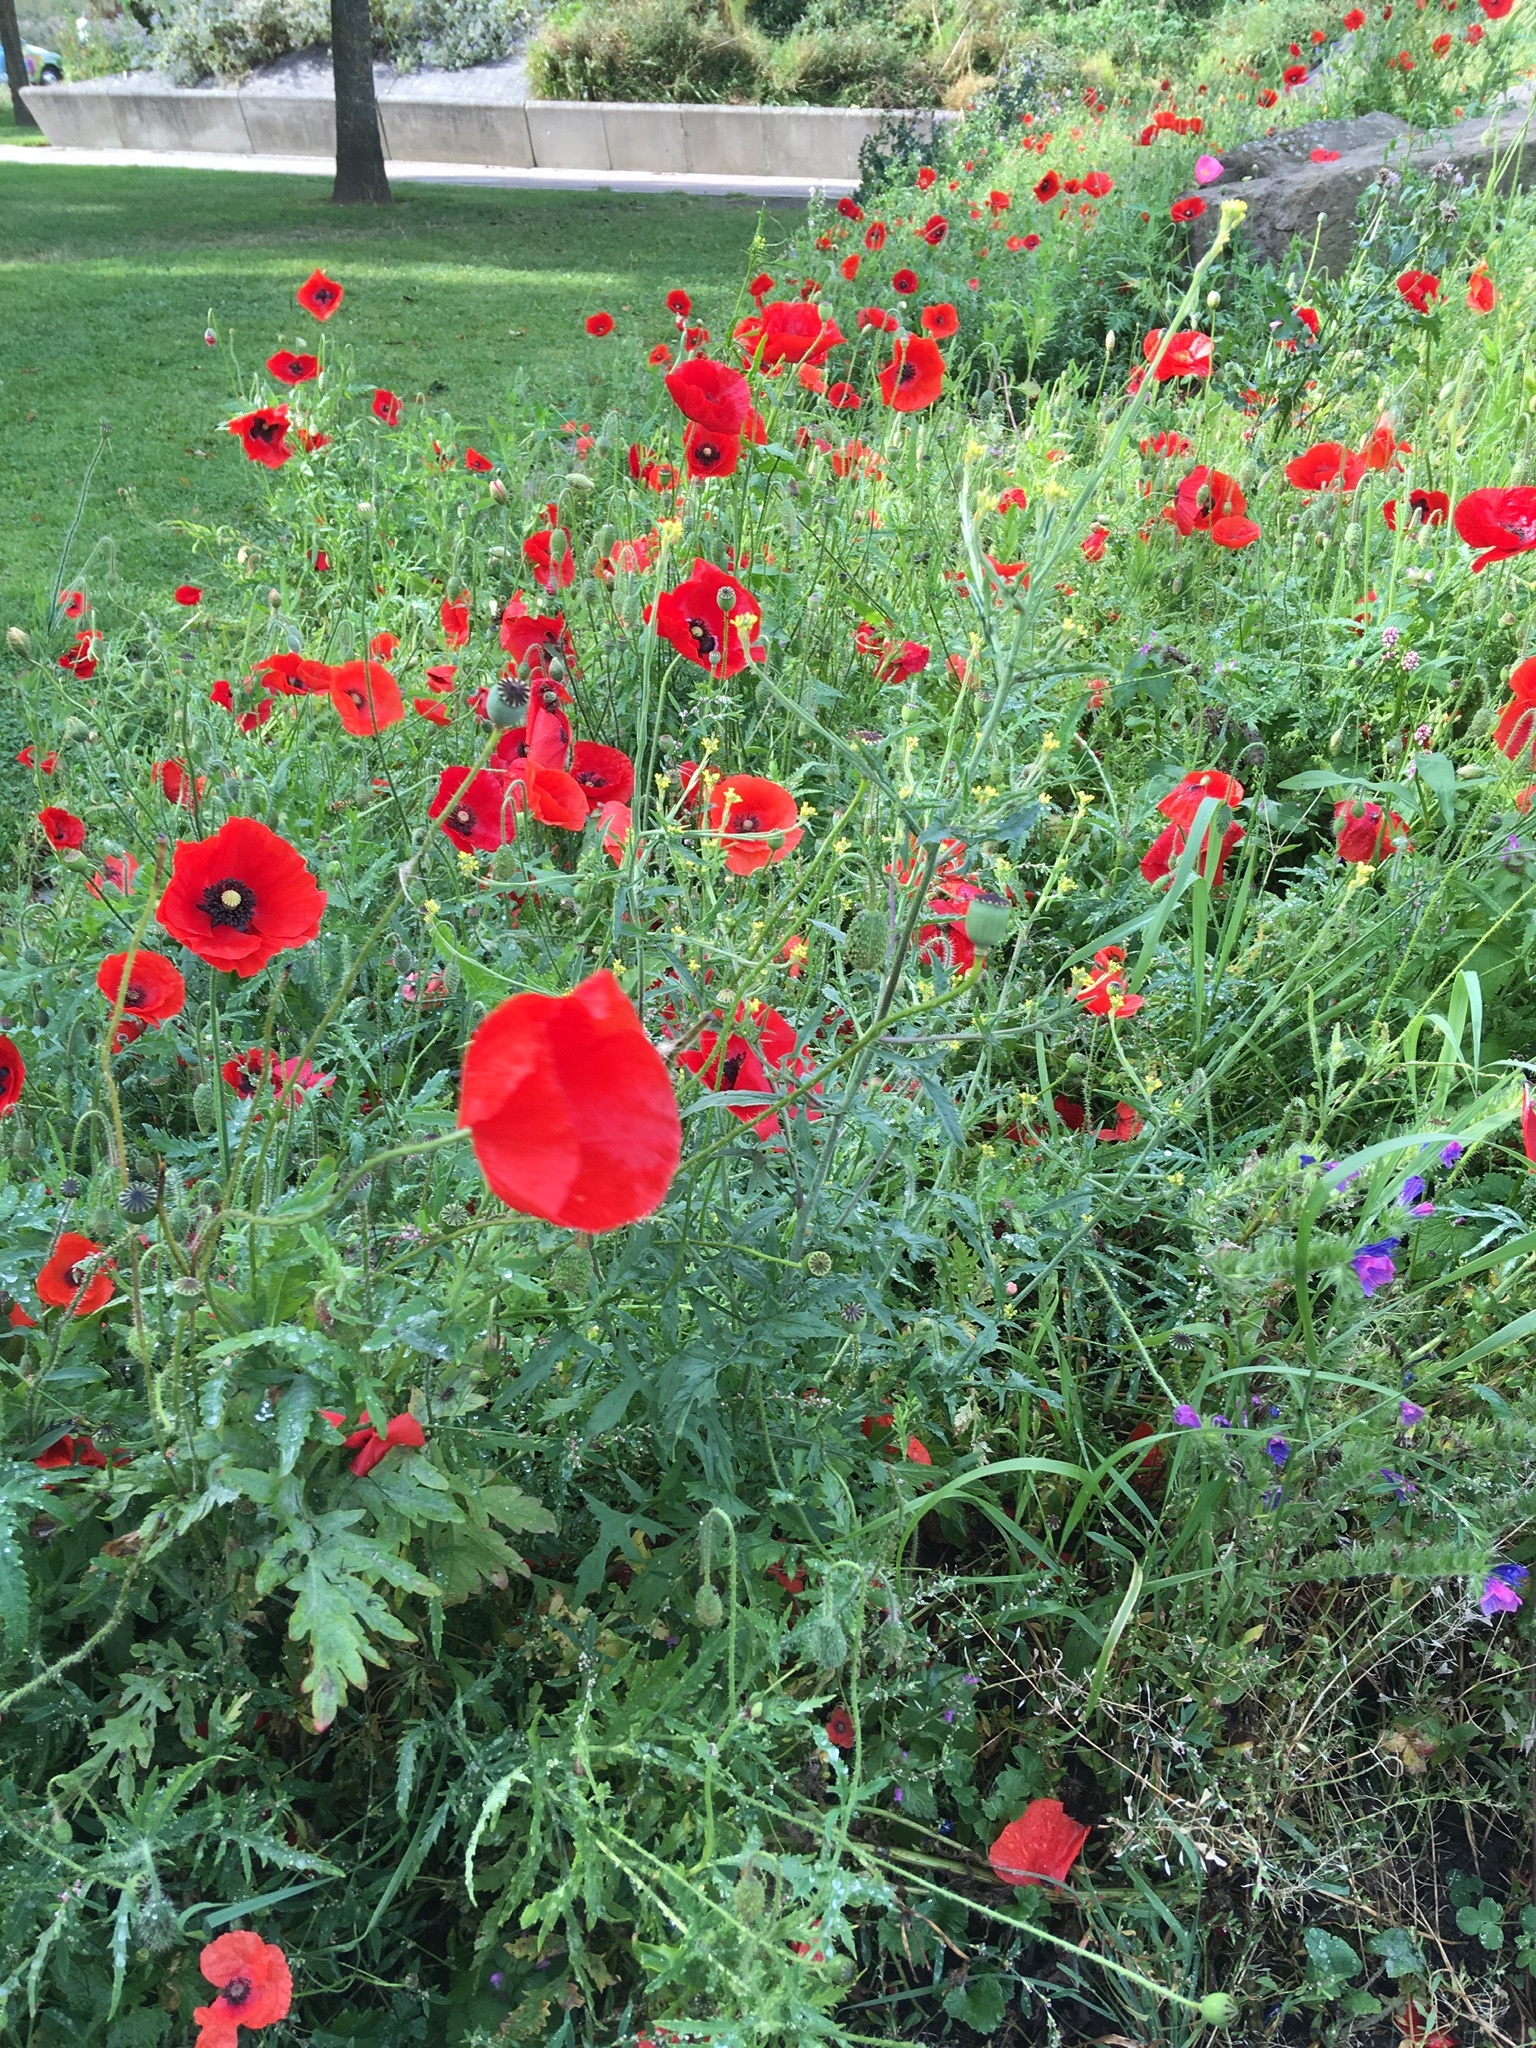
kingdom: Plantae
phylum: Tracheophyta
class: Magnoliopsida
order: Ranunculales
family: Papaveraceae
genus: Papaver
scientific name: Papaver rhoeas
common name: Corn poppy
